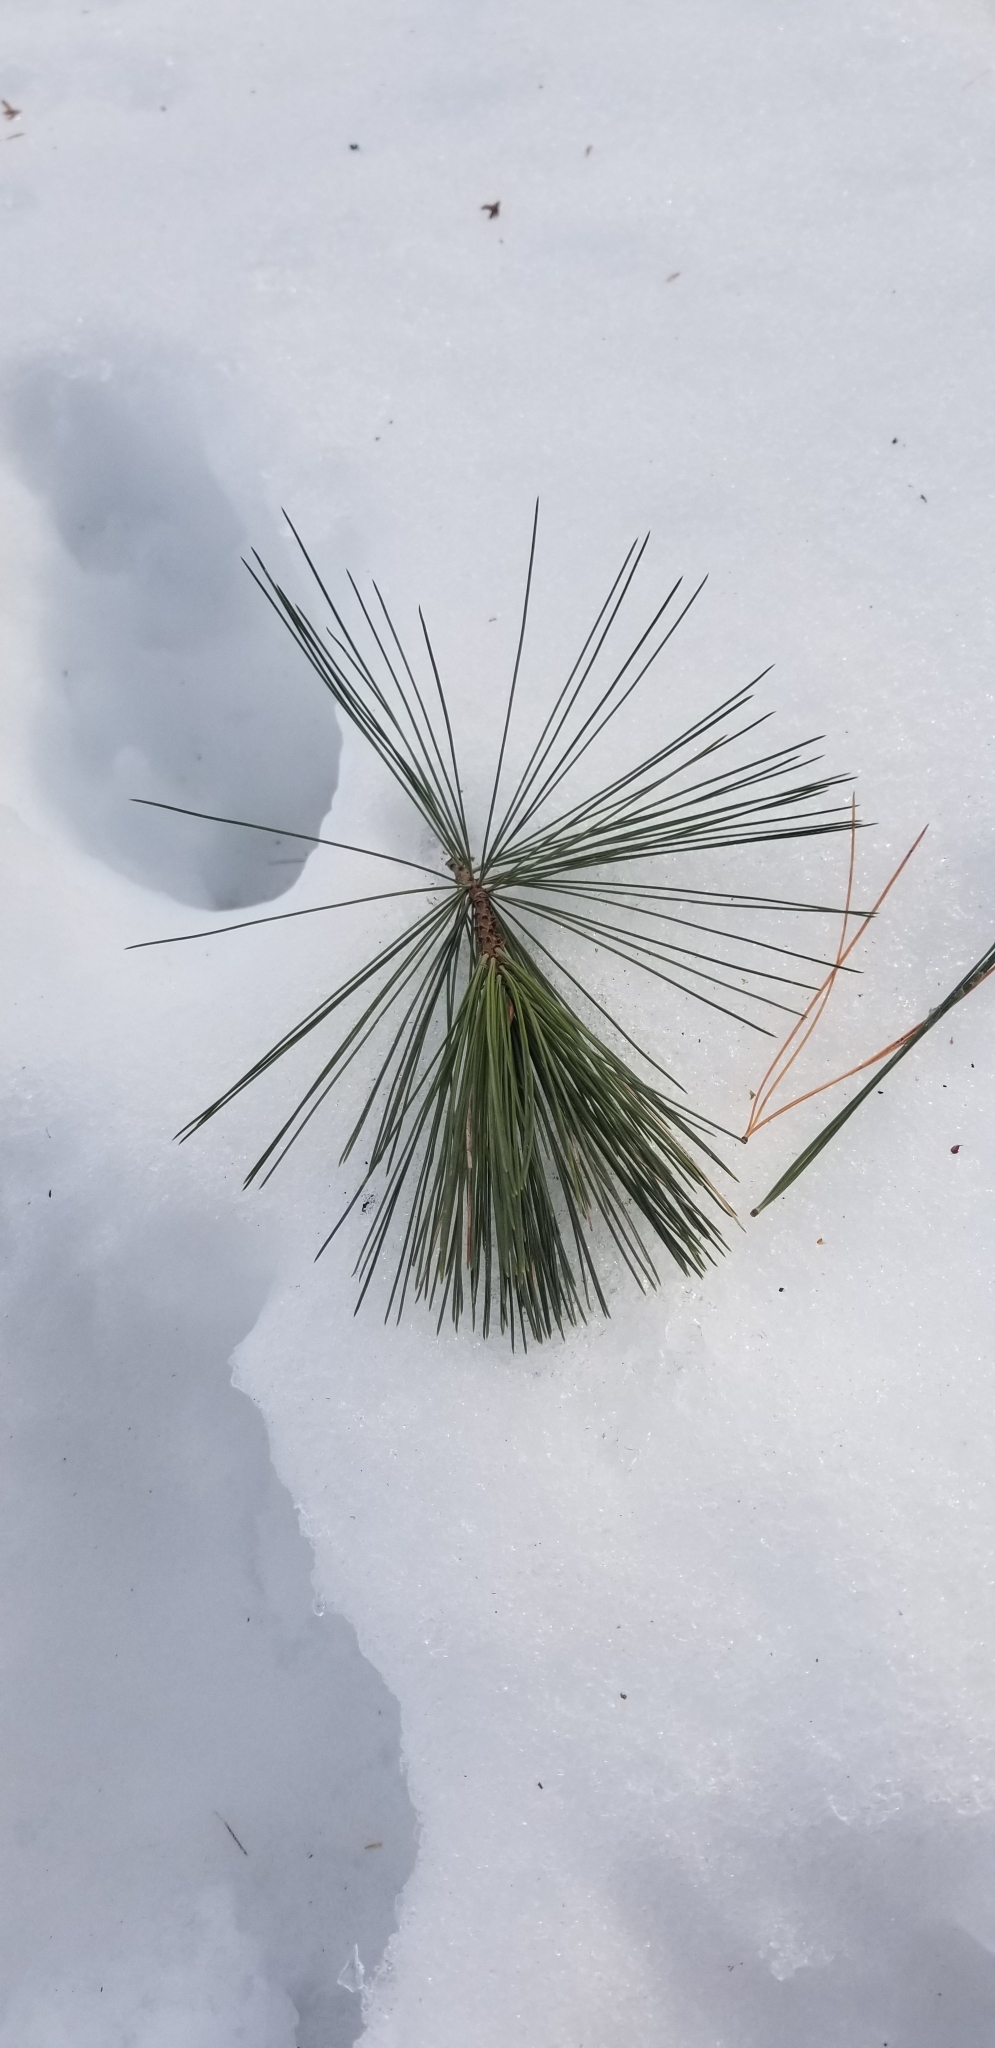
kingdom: Plantae
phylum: Tracheophyta
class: Pinopsida
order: Pinales
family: Pinaceae
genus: Pinus
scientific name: Pinus strobus
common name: Weymouth pine
